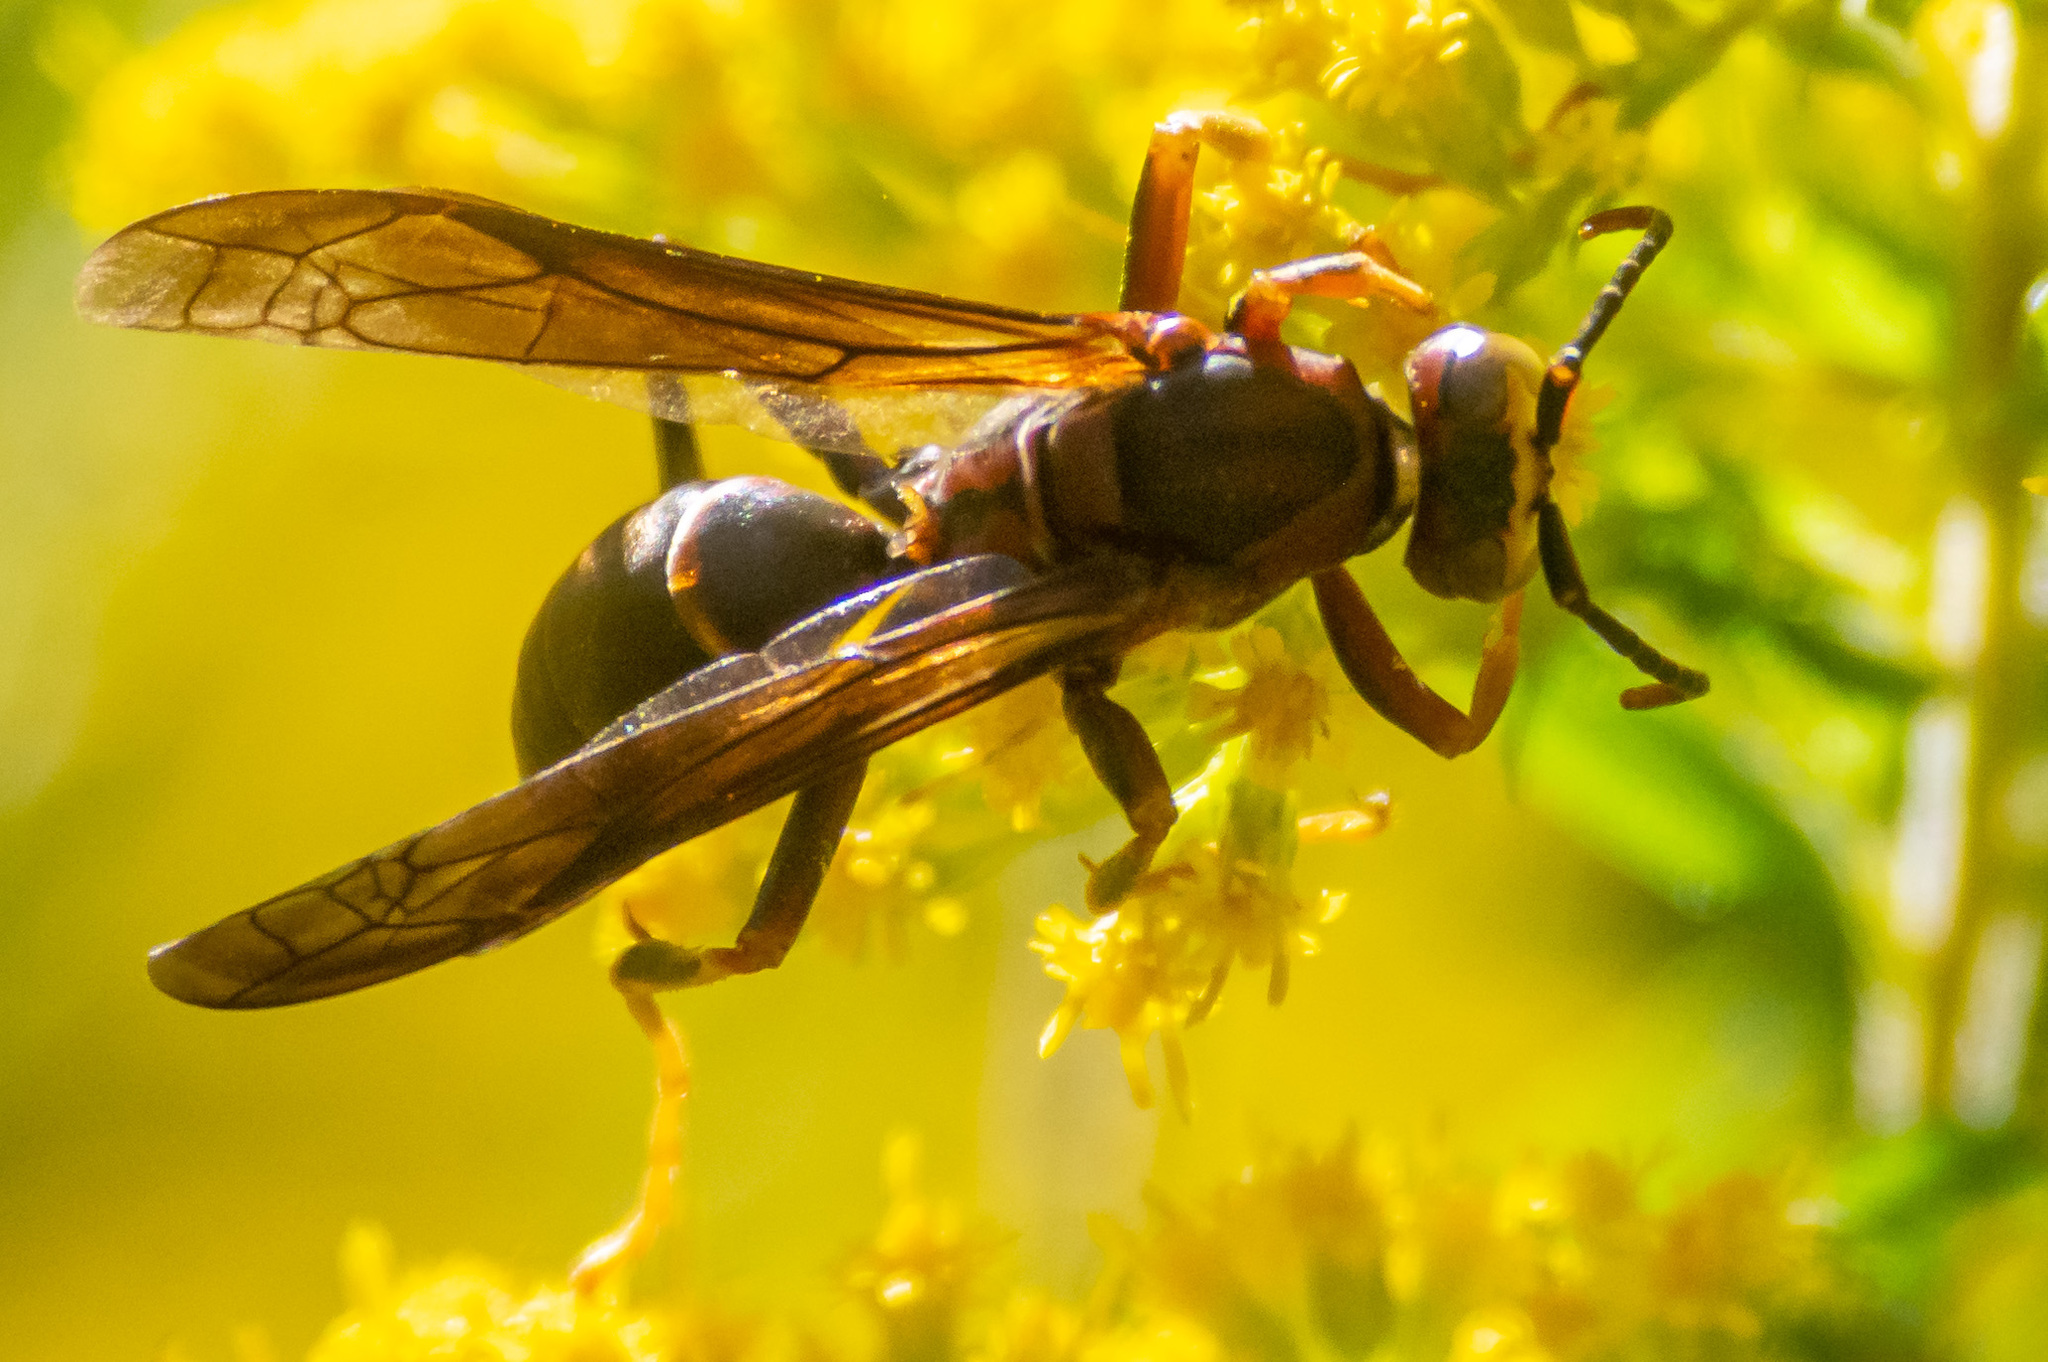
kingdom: Animalia
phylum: Arthropoda
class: Insecta
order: Hymenoptera
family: Eumenidae
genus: Polistes
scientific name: Polistes fuscatus
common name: Dark paper wasp
